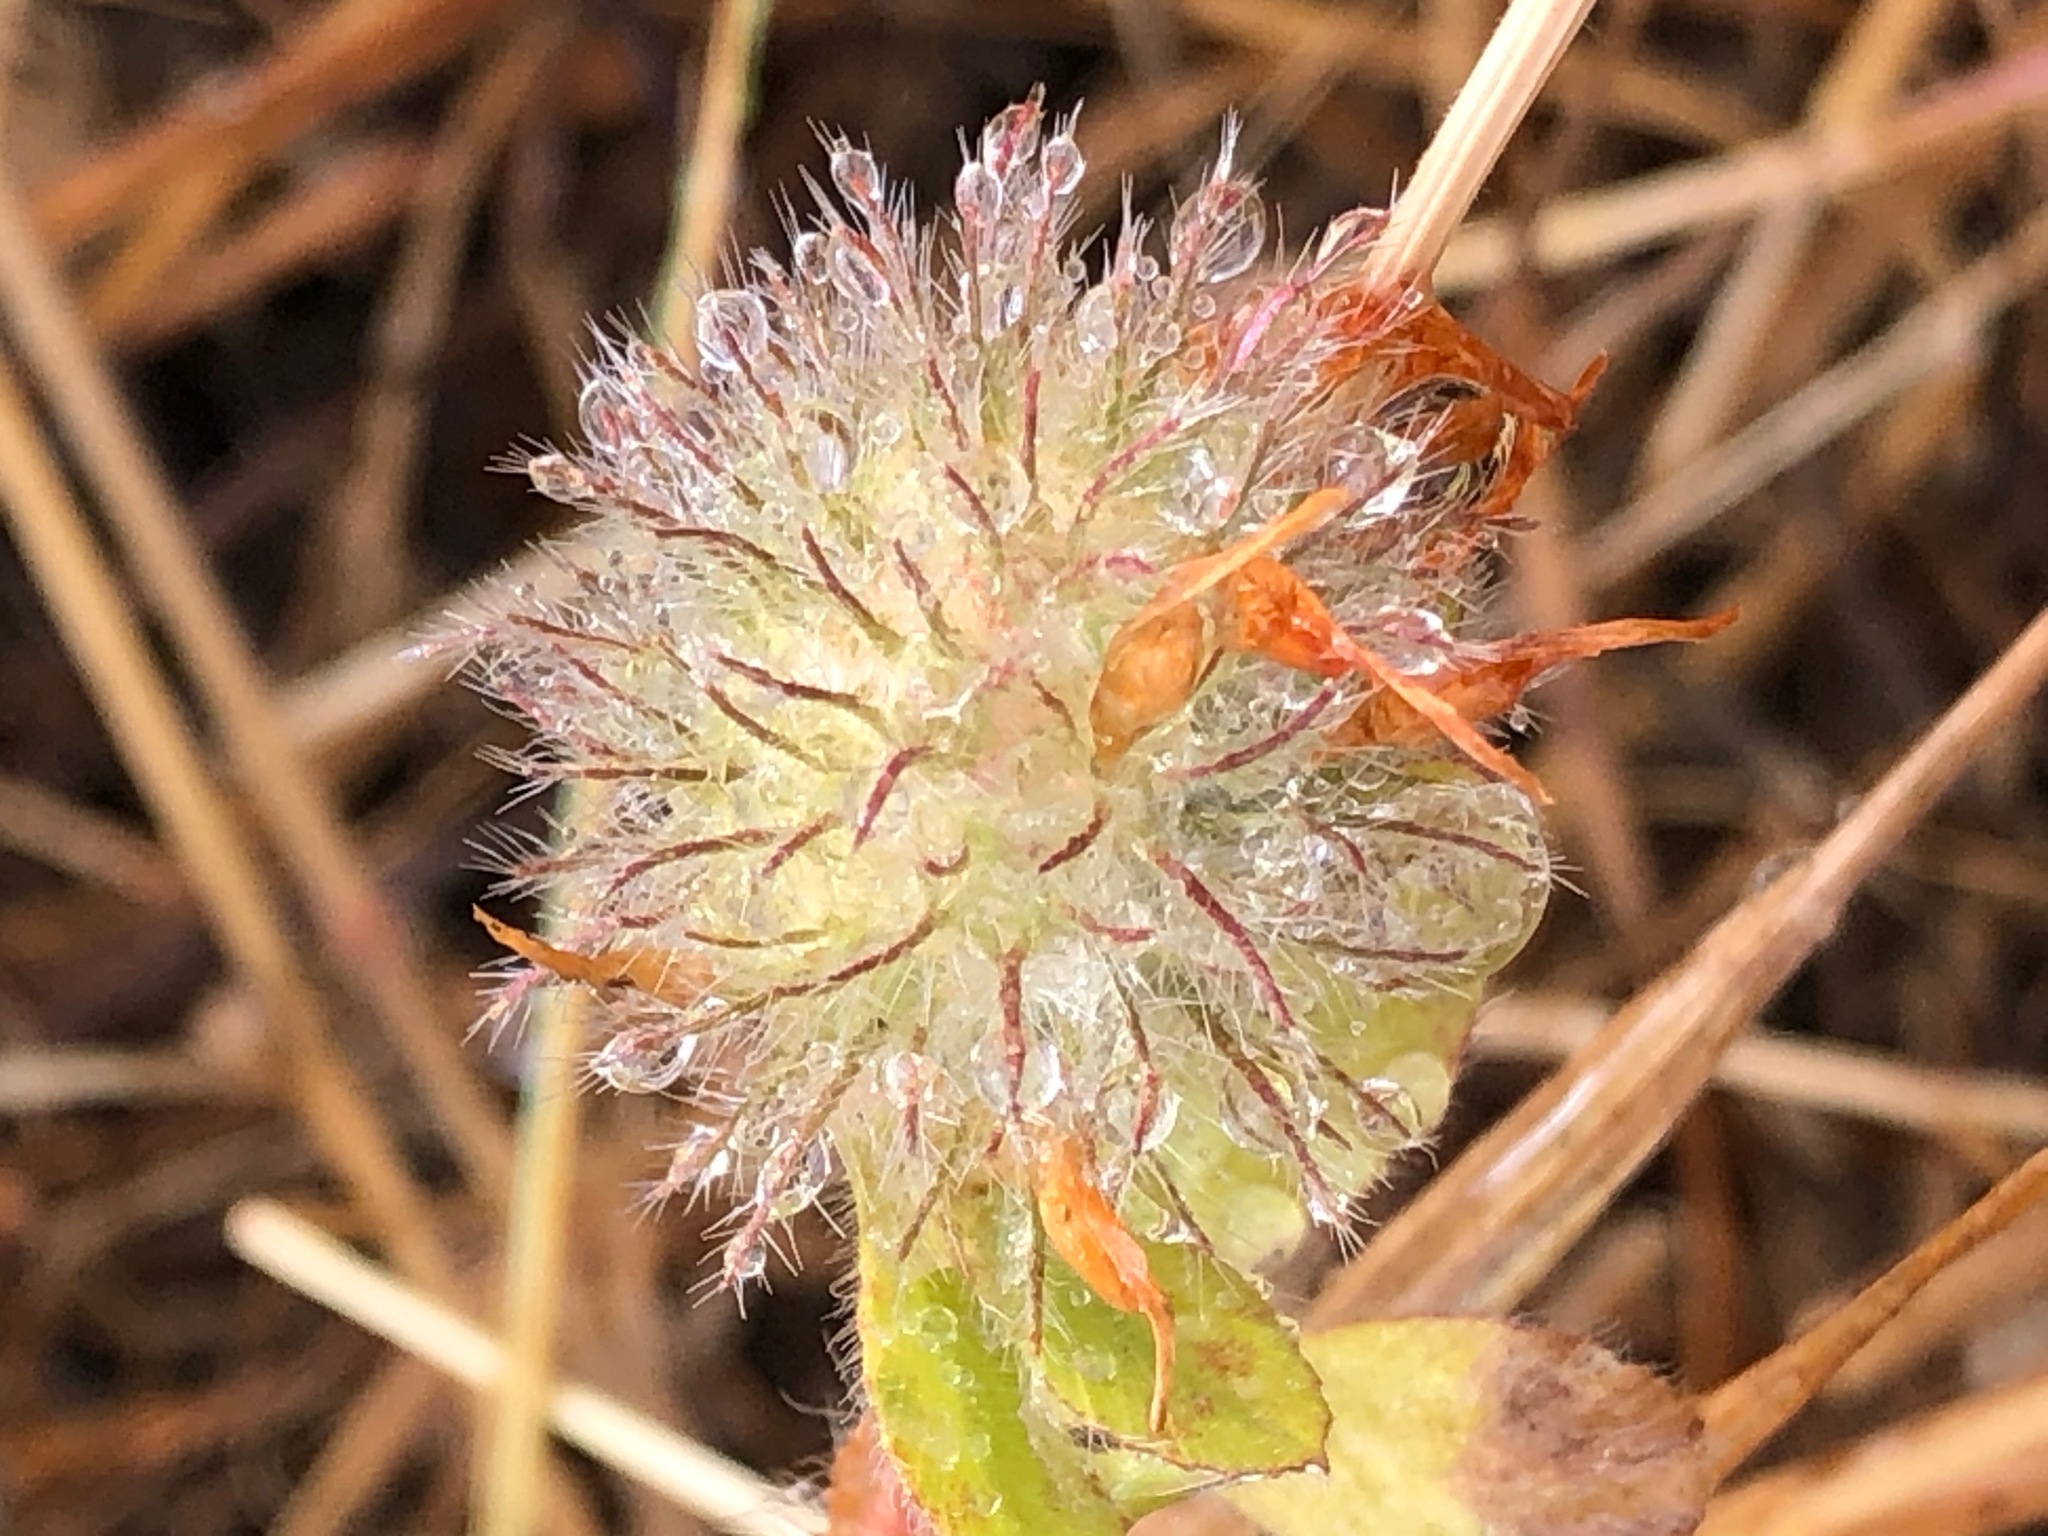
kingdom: Plantae
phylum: Tracheophyta
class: Magnoliopsida
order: Fabales
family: Fabaceae
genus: Trifolium
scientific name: Trifolium hirtum
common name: Rose clover
